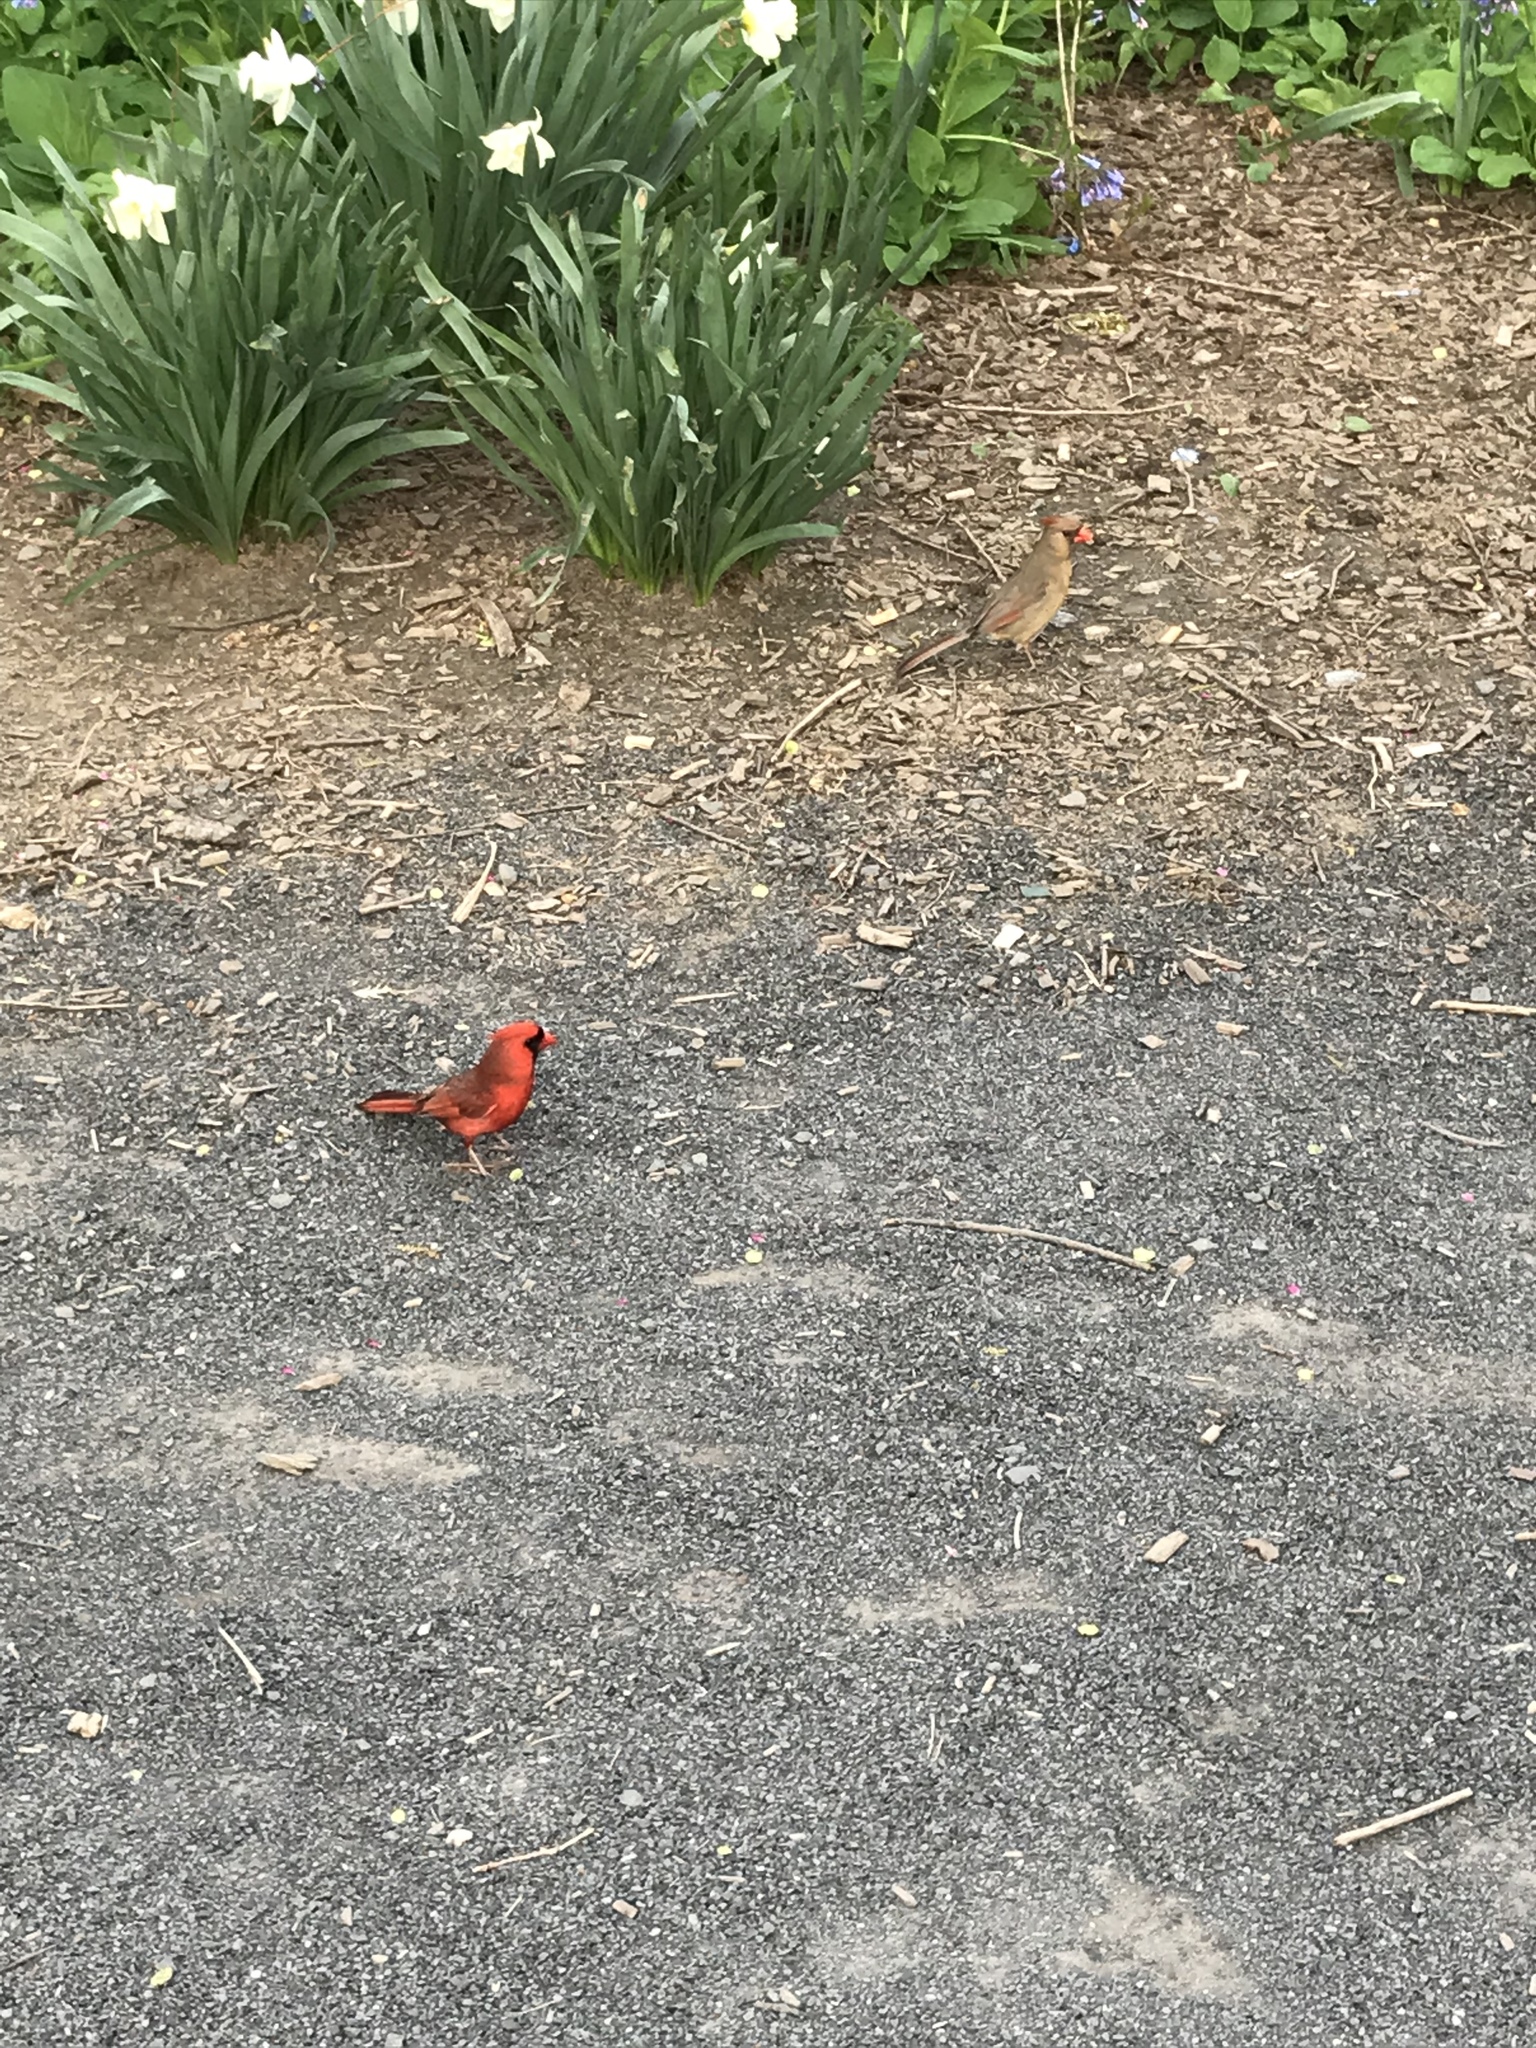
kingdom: Animalia
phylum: Chordata
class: Aves
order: Passeriformes
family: Cardinalidae
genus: Cardinalis
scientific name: Cardinalis cardinalis
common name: Northern cardinal
